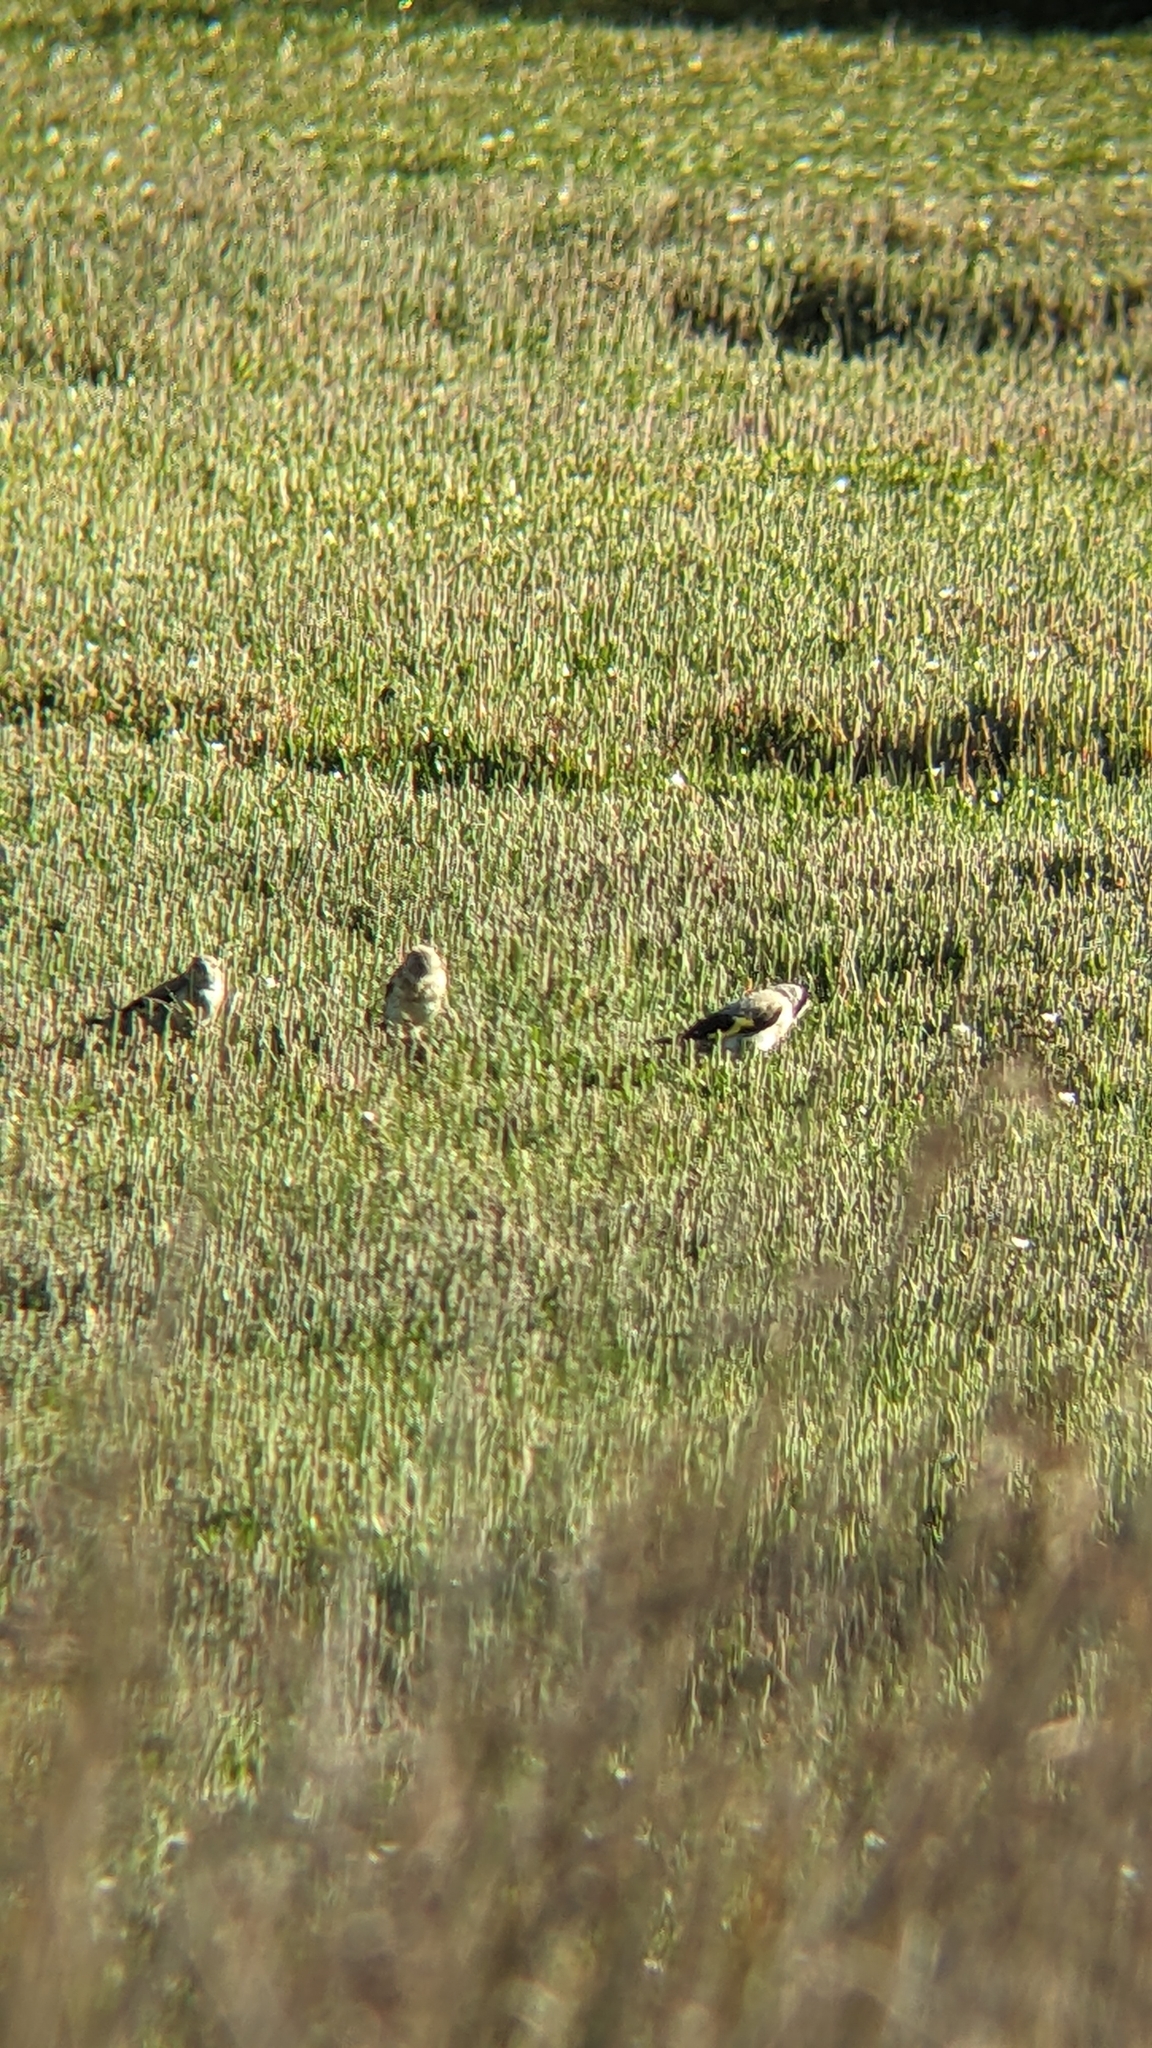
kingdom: Animalia
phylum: Chordata
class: Aves
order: Passeriformes
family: Fringillidae
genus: Carduelis
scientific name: Carduelis carduelis
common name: European goldfinch
